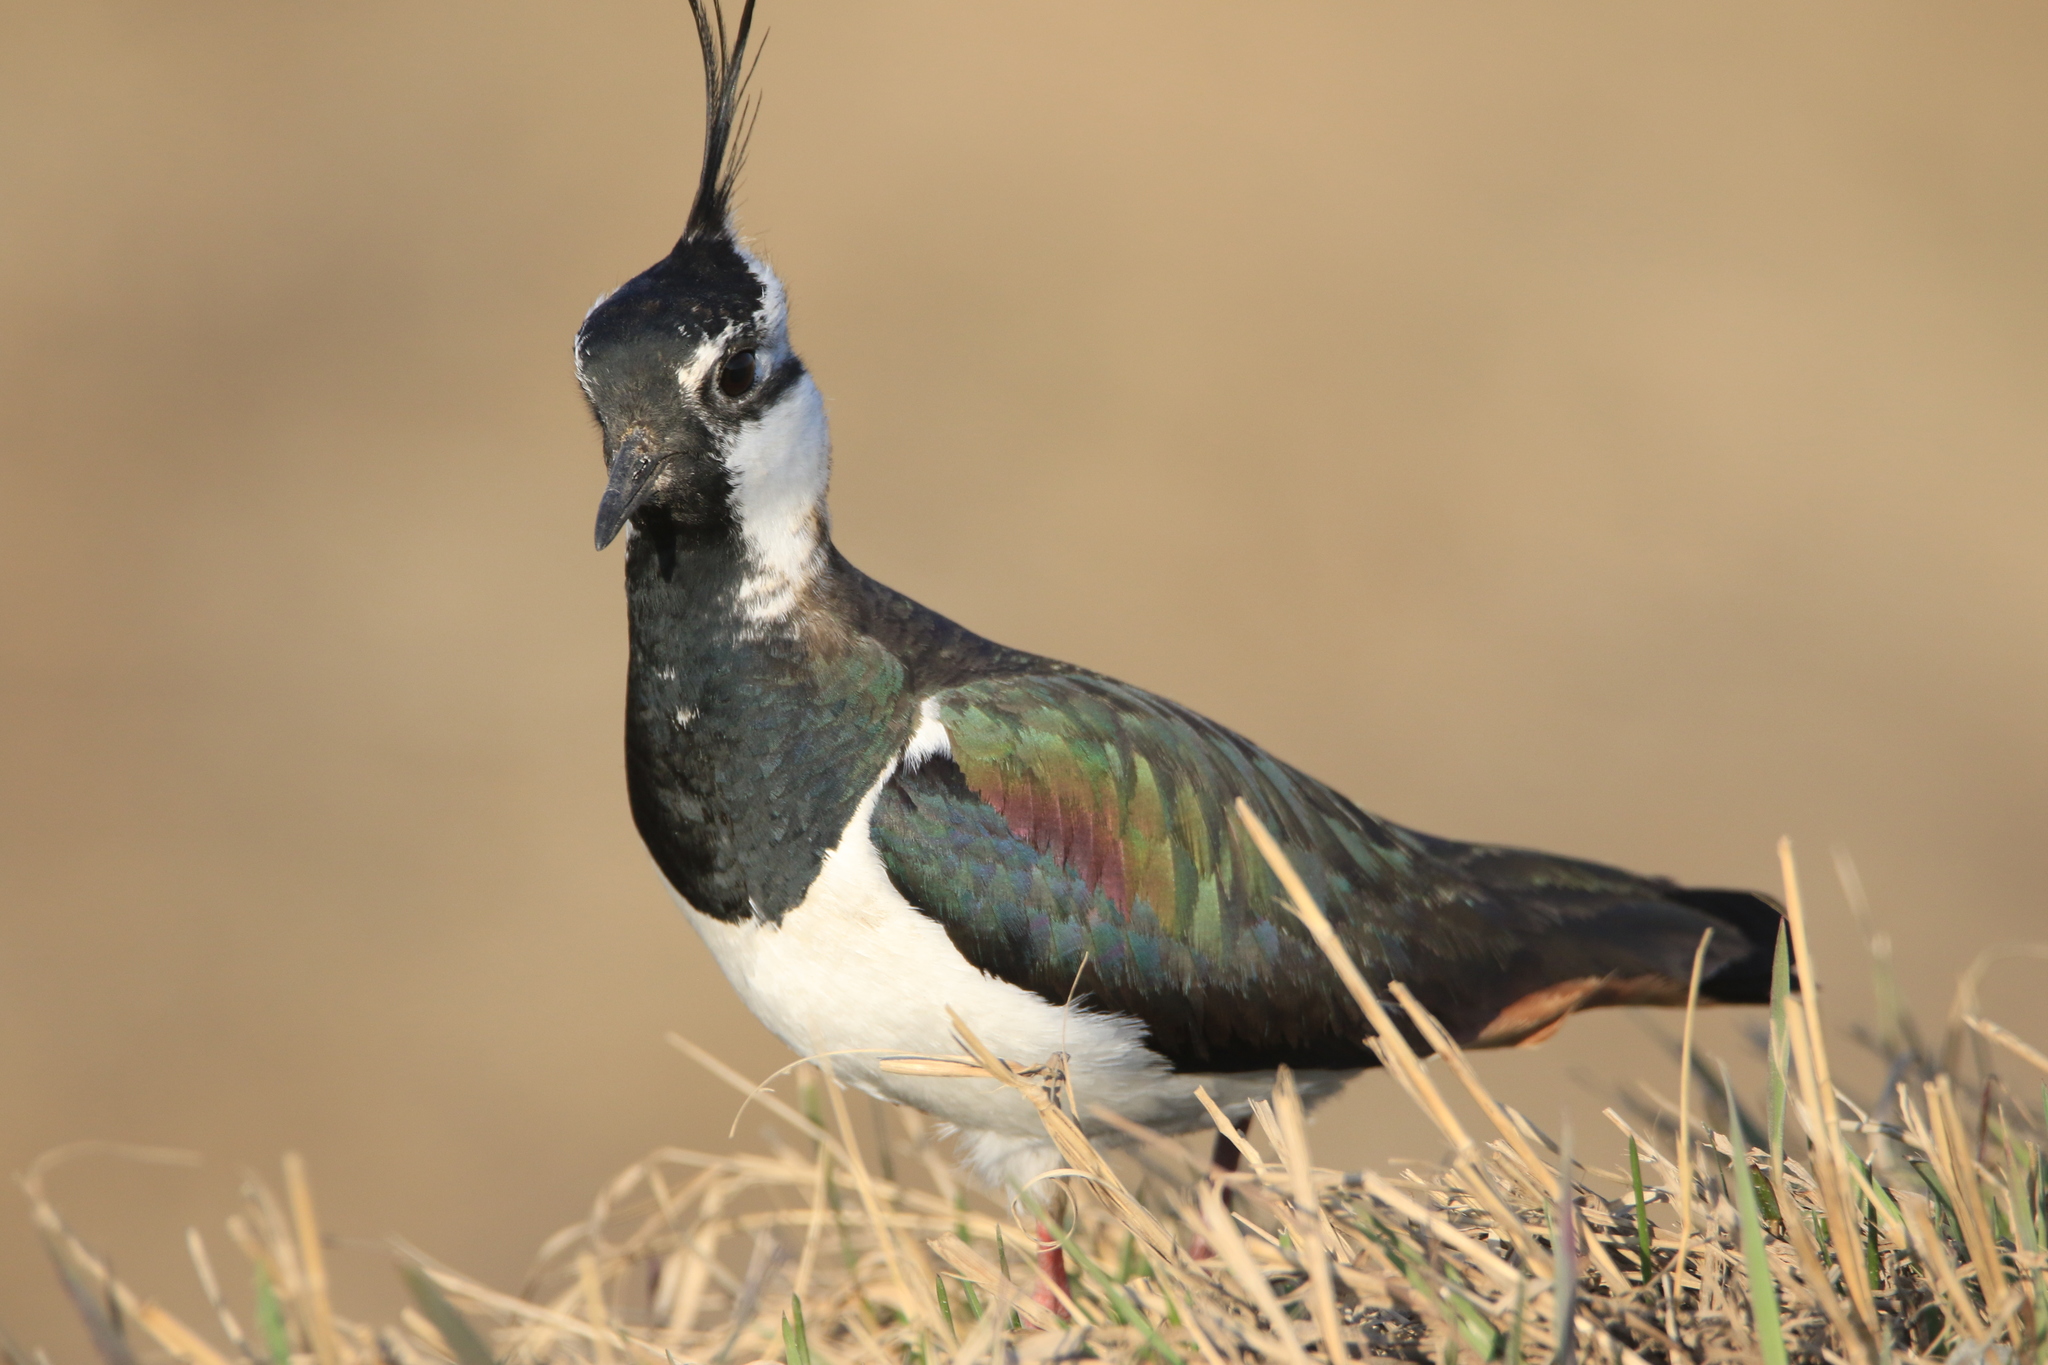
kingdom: Animalia
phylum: Chordata
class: Aves
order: Charadriiformes
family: Charadriidae
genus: Vanellus
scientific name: Vanellus vanellus
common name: Northern lapwing
